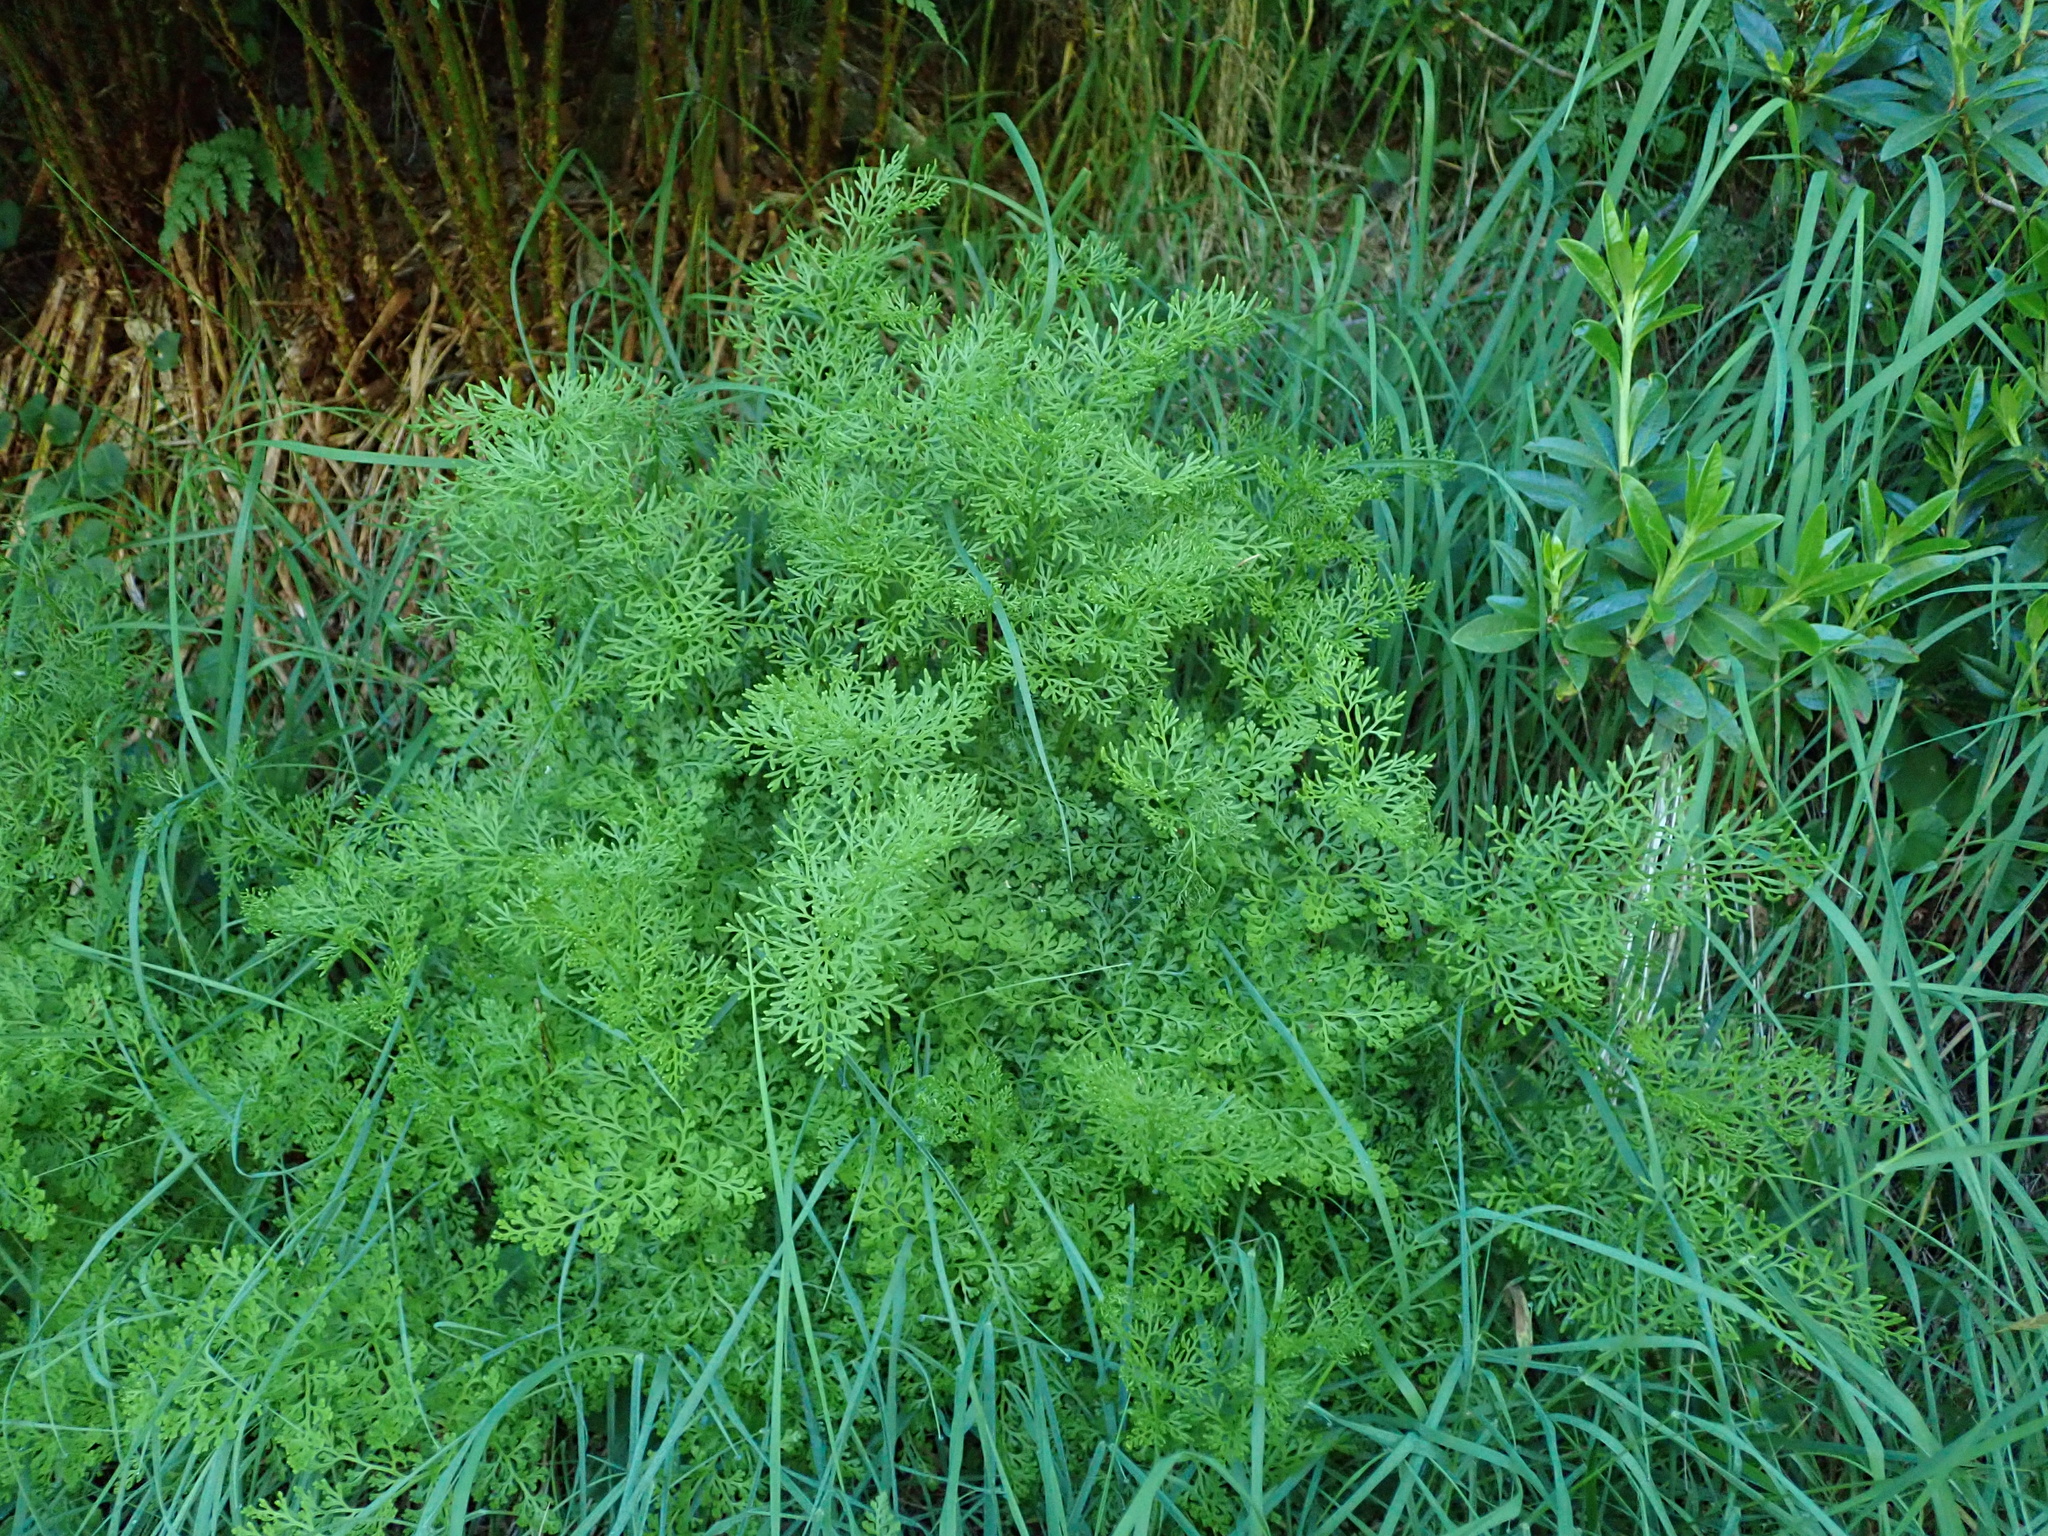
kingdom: Plantae
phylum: Tracheophyta
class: Polypodiopsida
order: Polypodiales
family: Pteridaceae
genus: Cryptogramma
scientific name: Cryptogramma crispa
